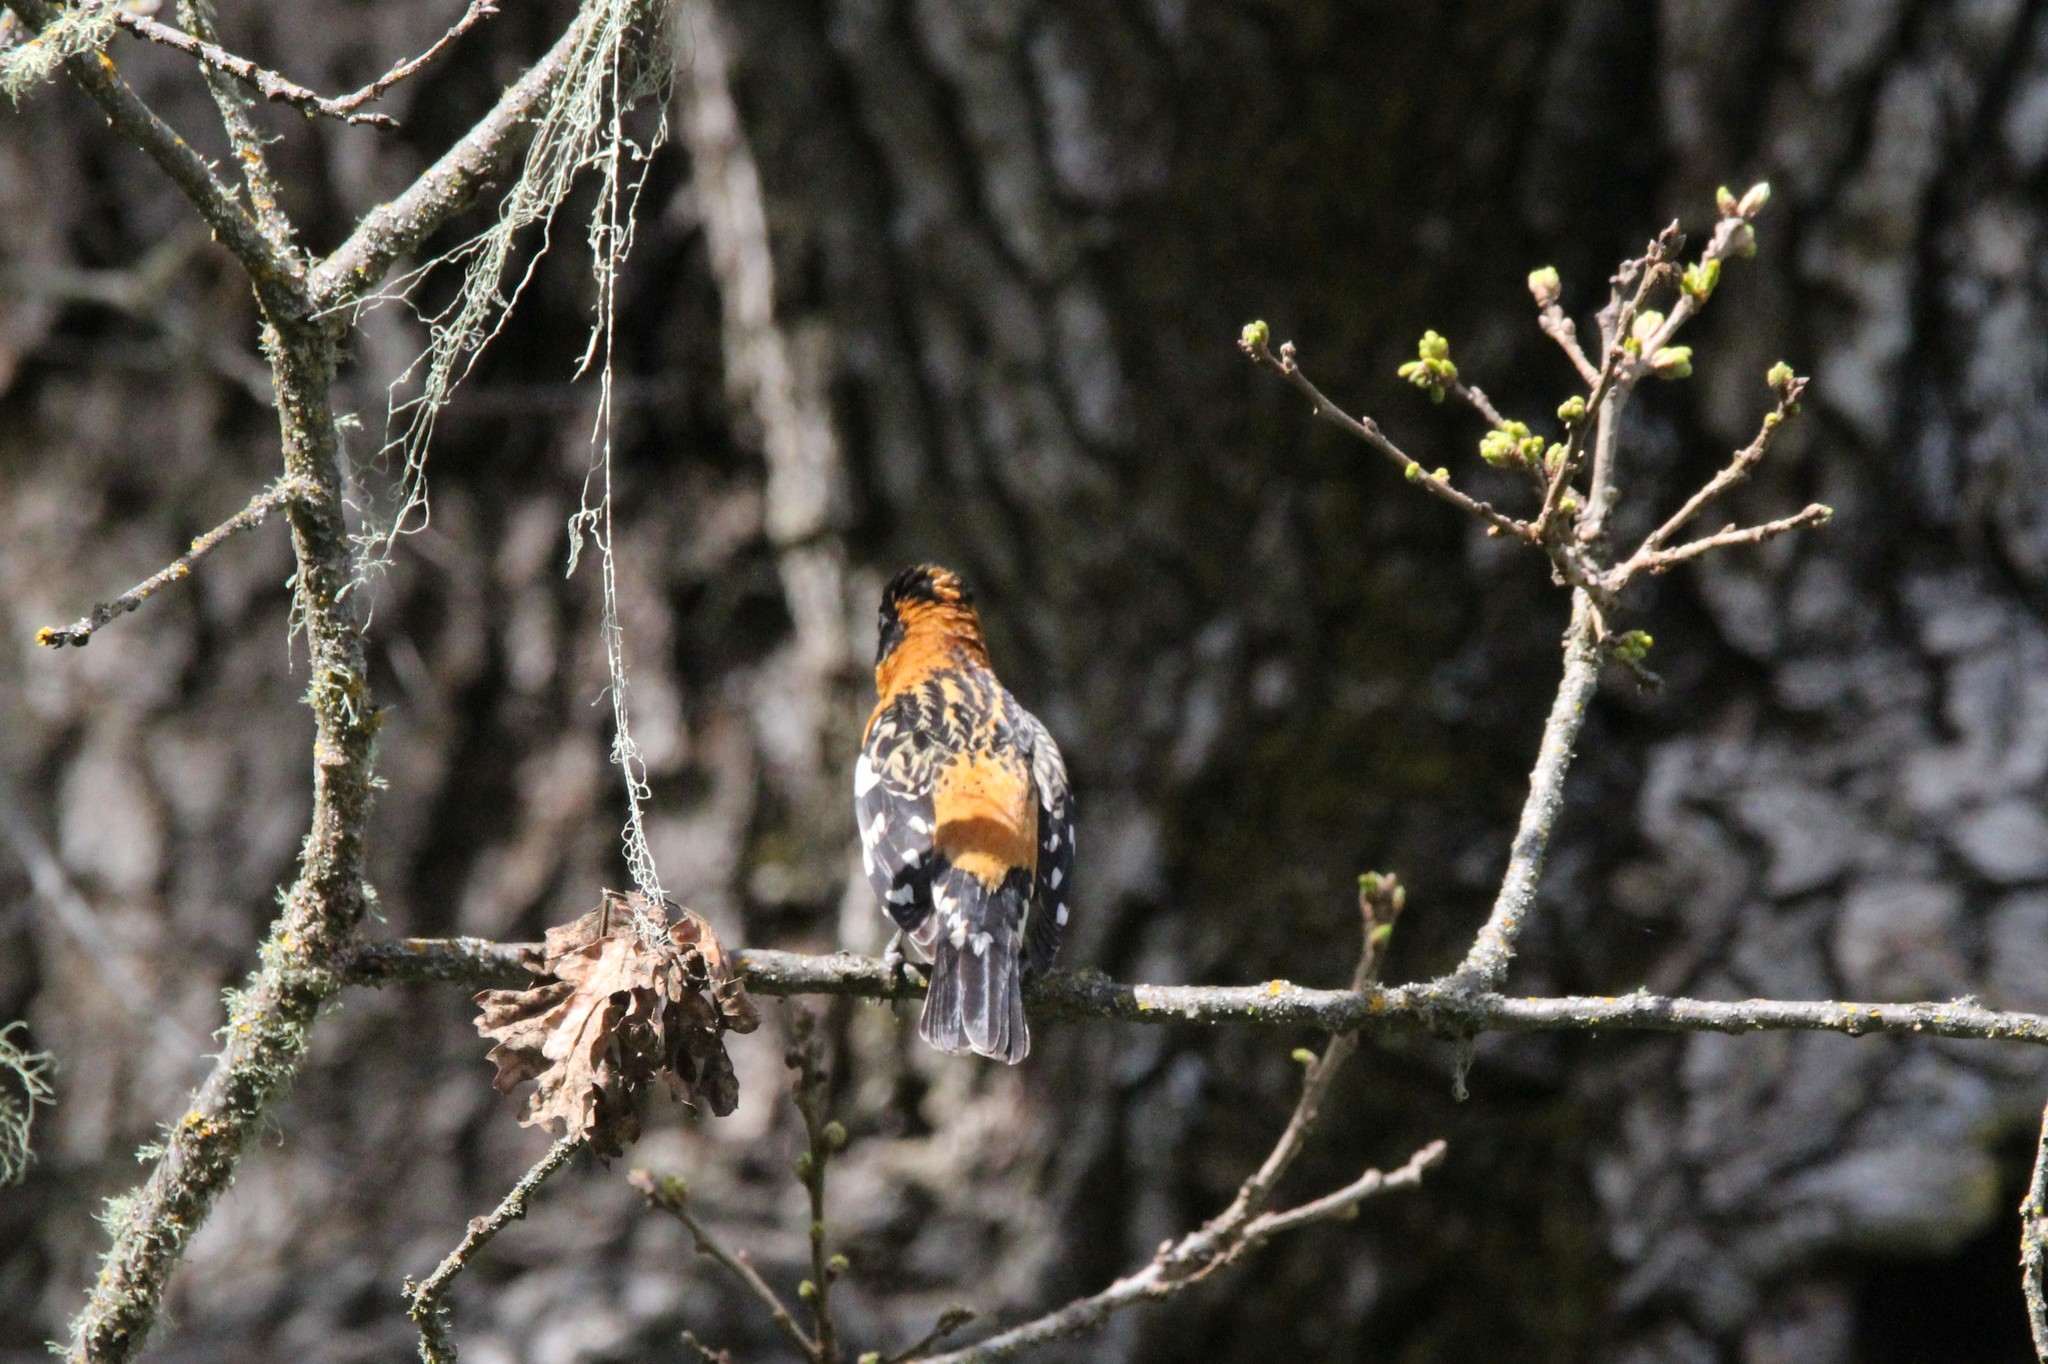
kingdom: Animalia
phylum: Chordata
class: Aves
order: Passeriformes
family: Cardinalidae
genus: Pheucticus
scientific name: Pheucticus melanocephalus
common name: Black-headed grosbeak
